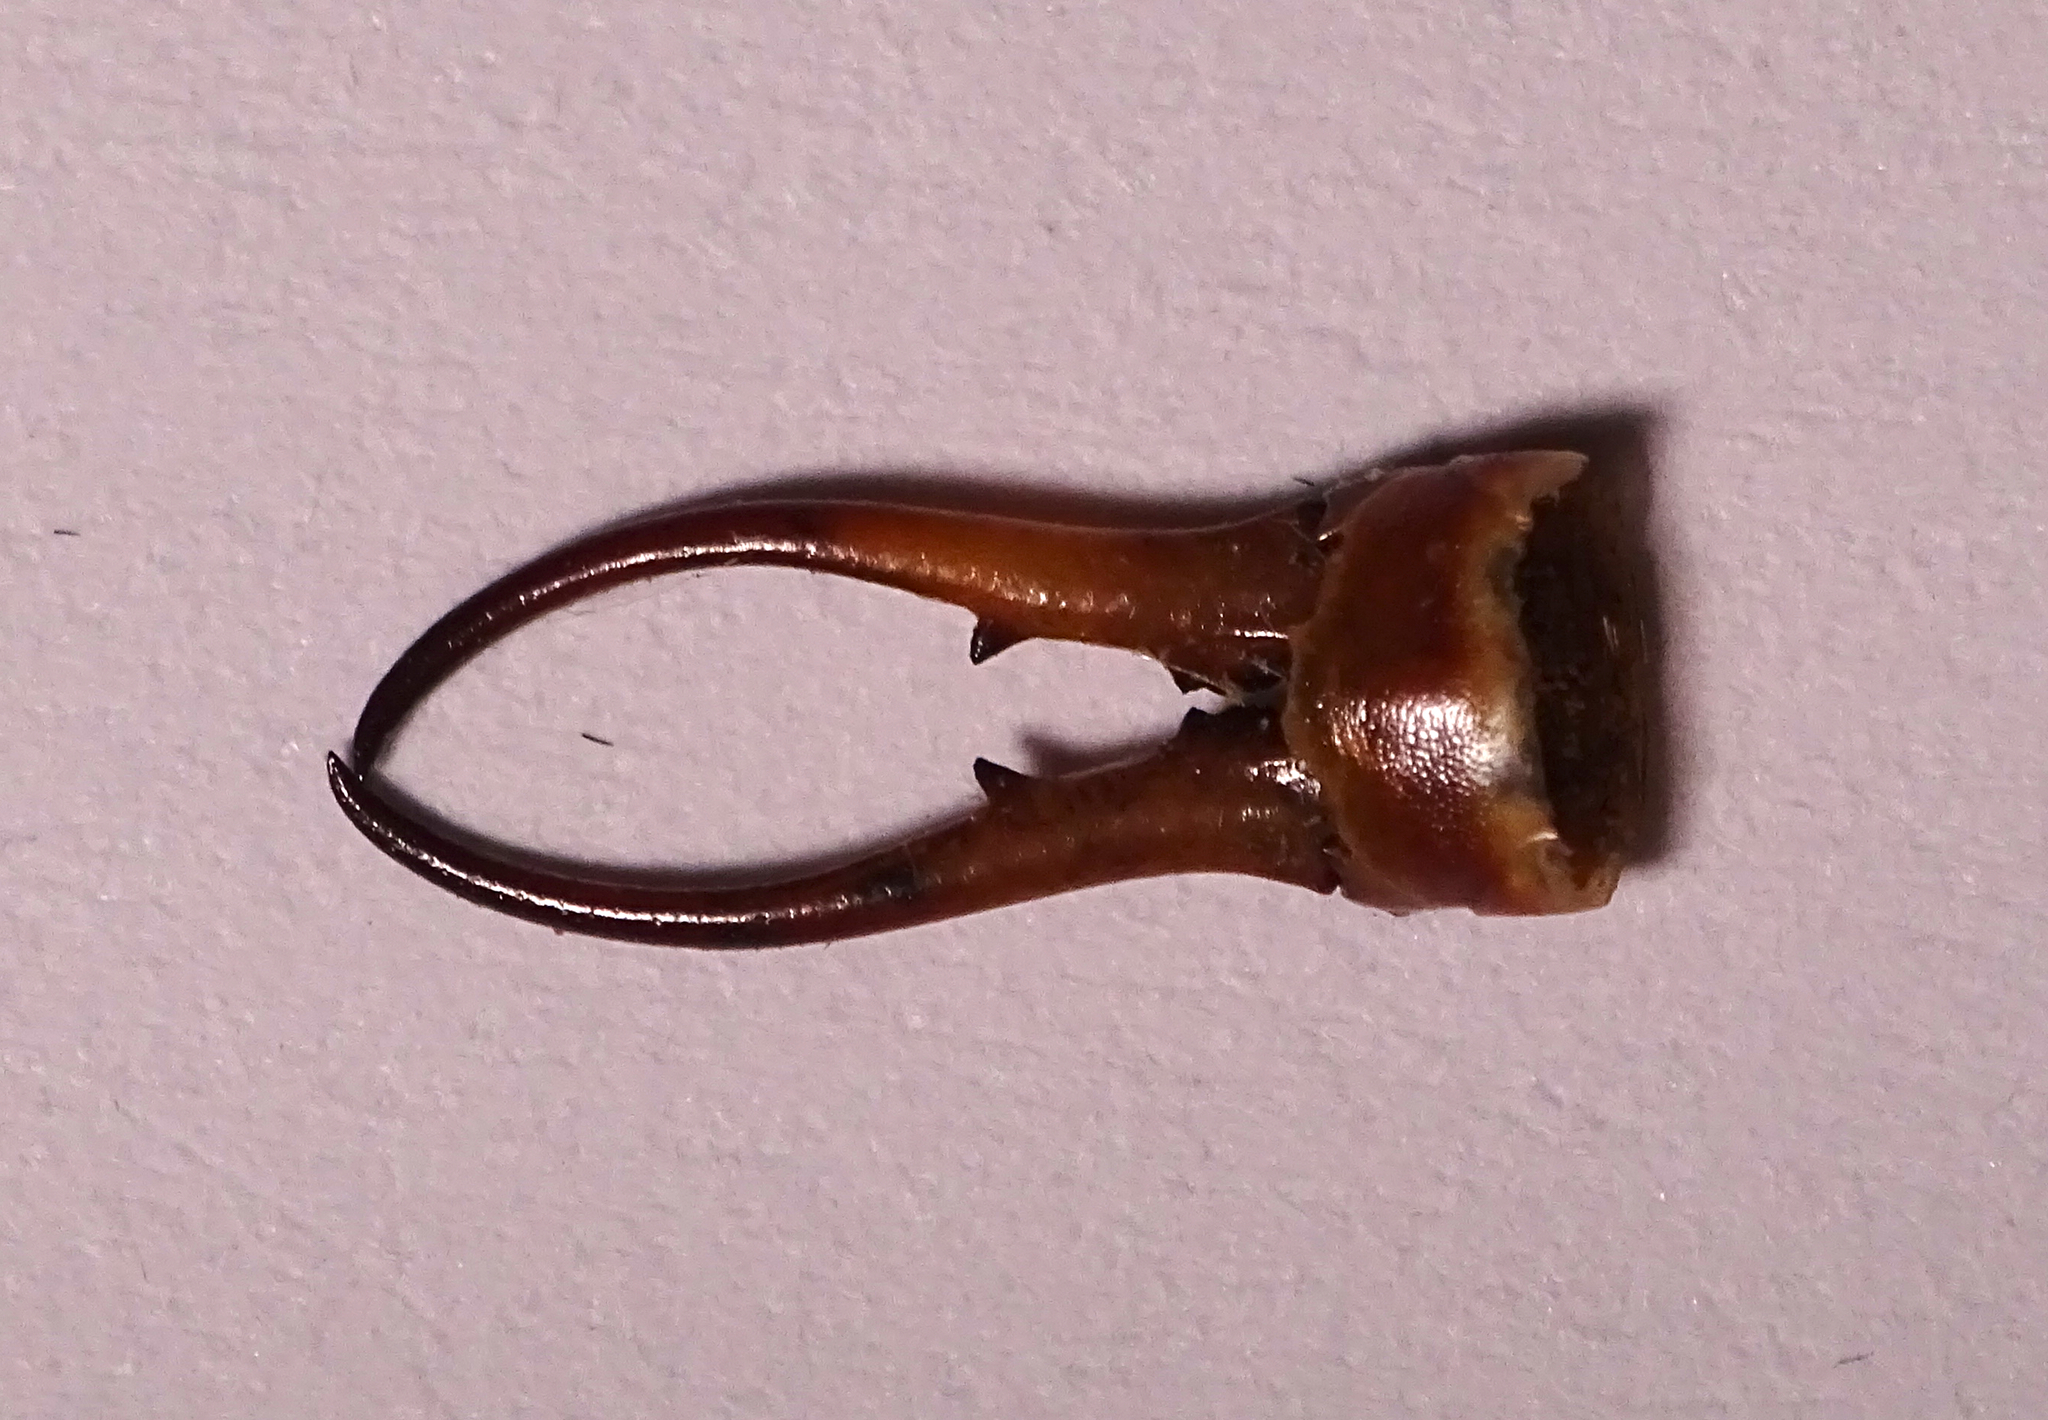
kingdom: Animalia
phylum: Arthropoda
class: Insecta
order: Dermaptera
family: Forficulidae
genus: Forficula
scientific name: Forficula
